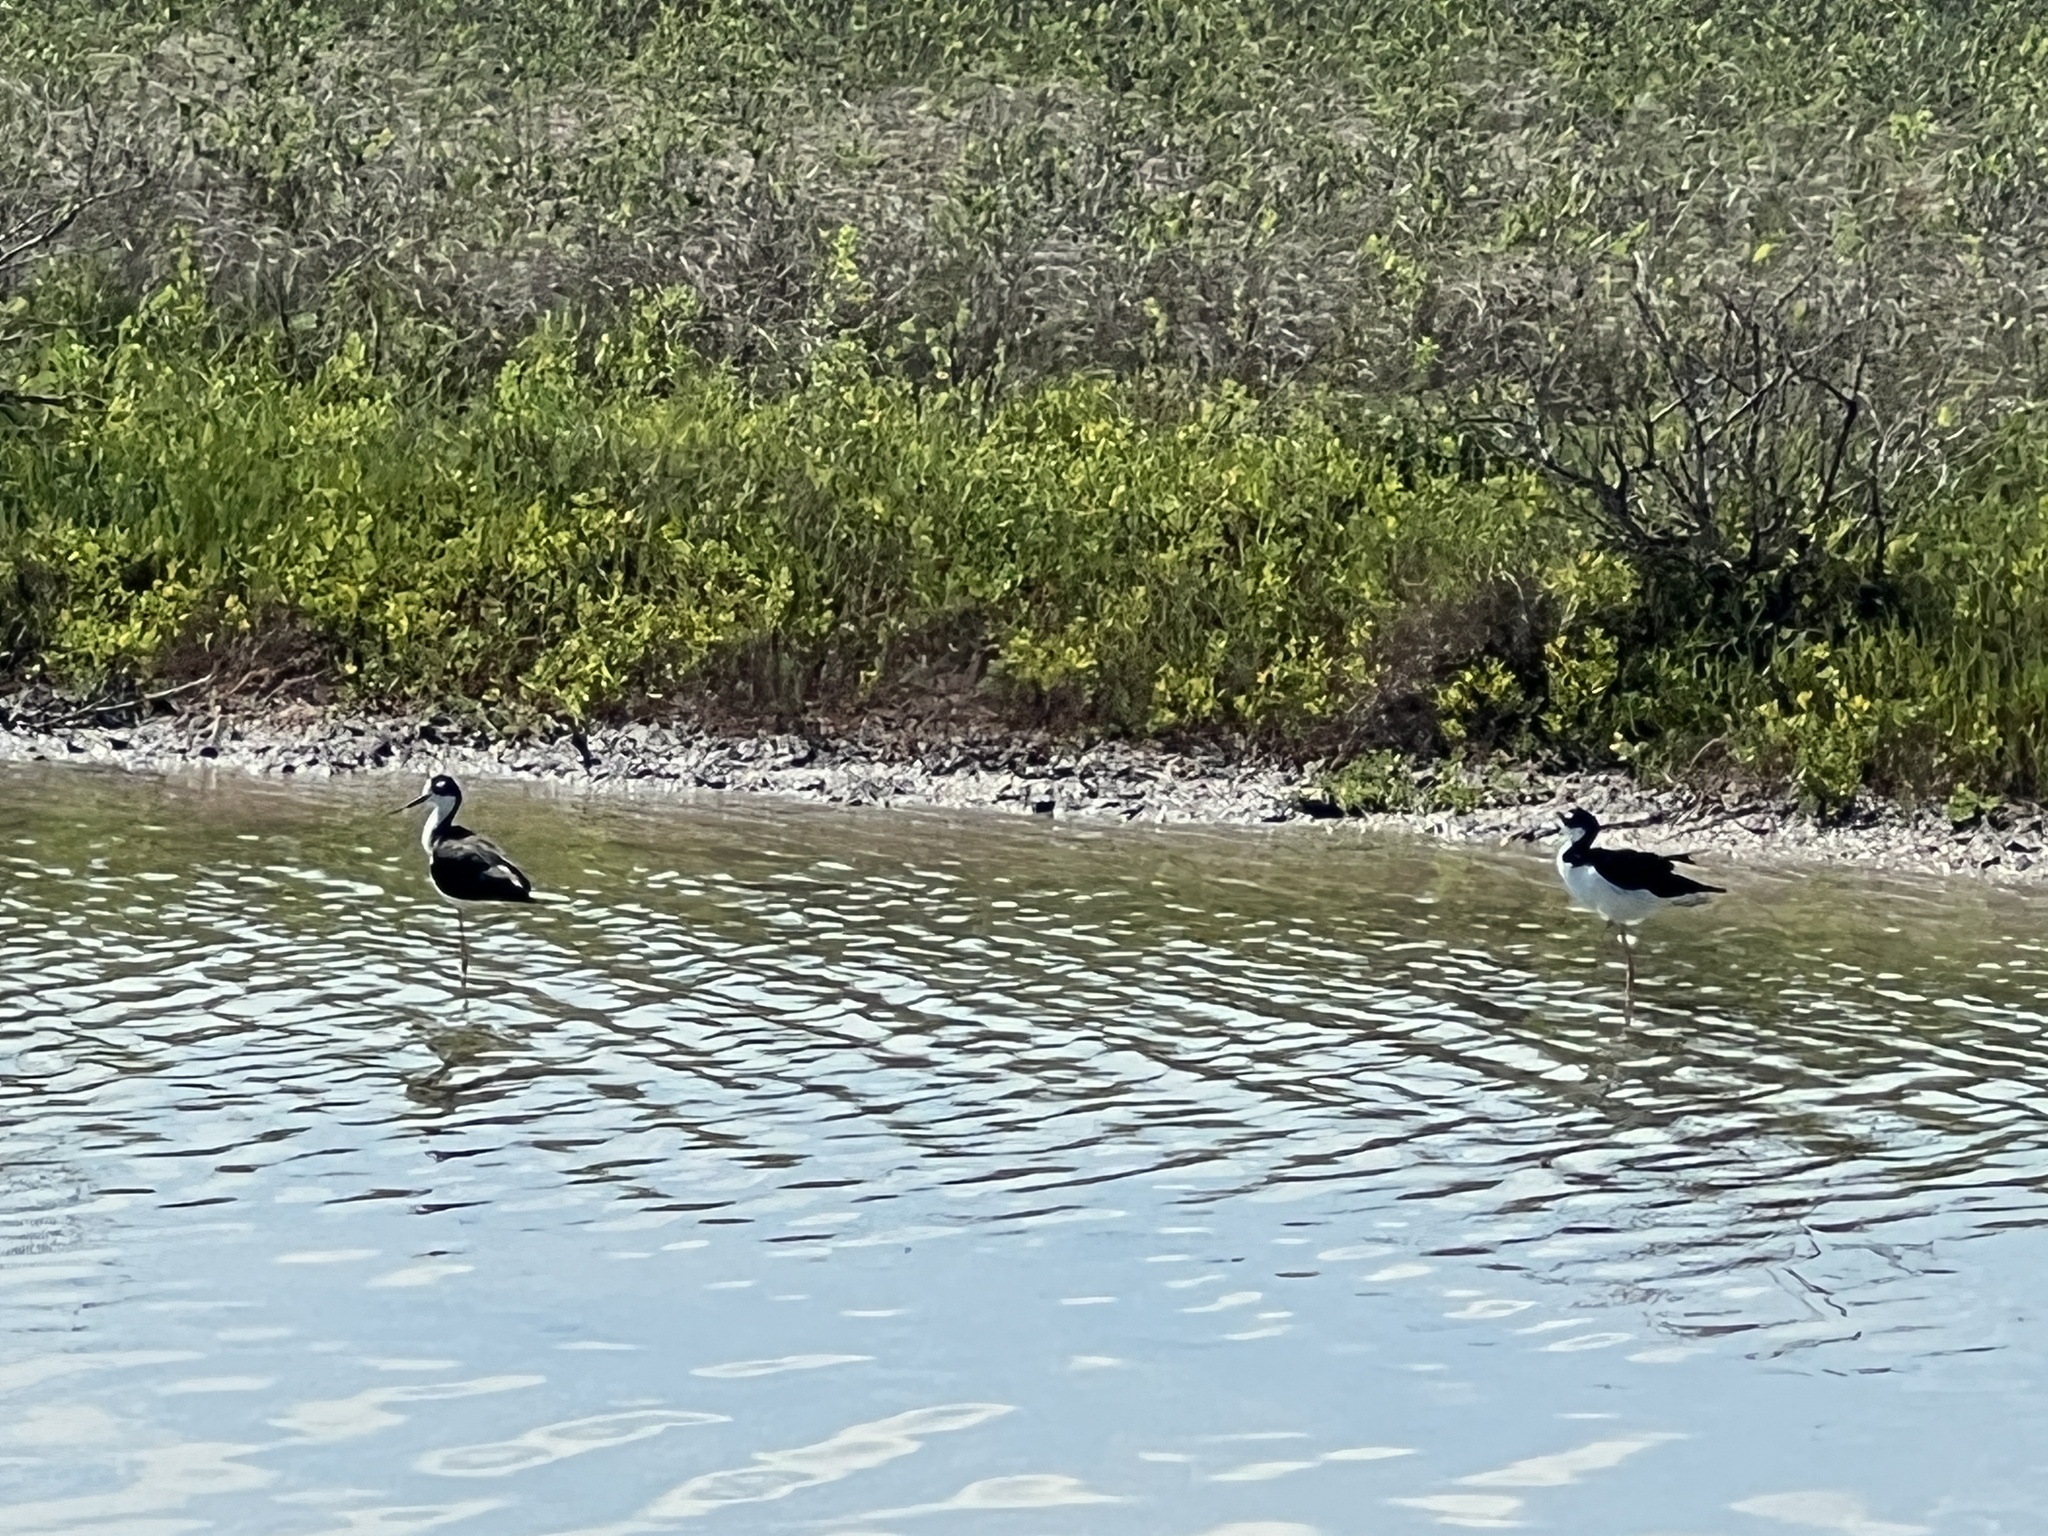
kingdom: Animalia
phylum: Chordata
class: Aves
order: Charadriiformes
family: Recurvirostridae
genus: Himantopus
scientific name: Himantopus mexicanus
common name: Black-necked stilt
